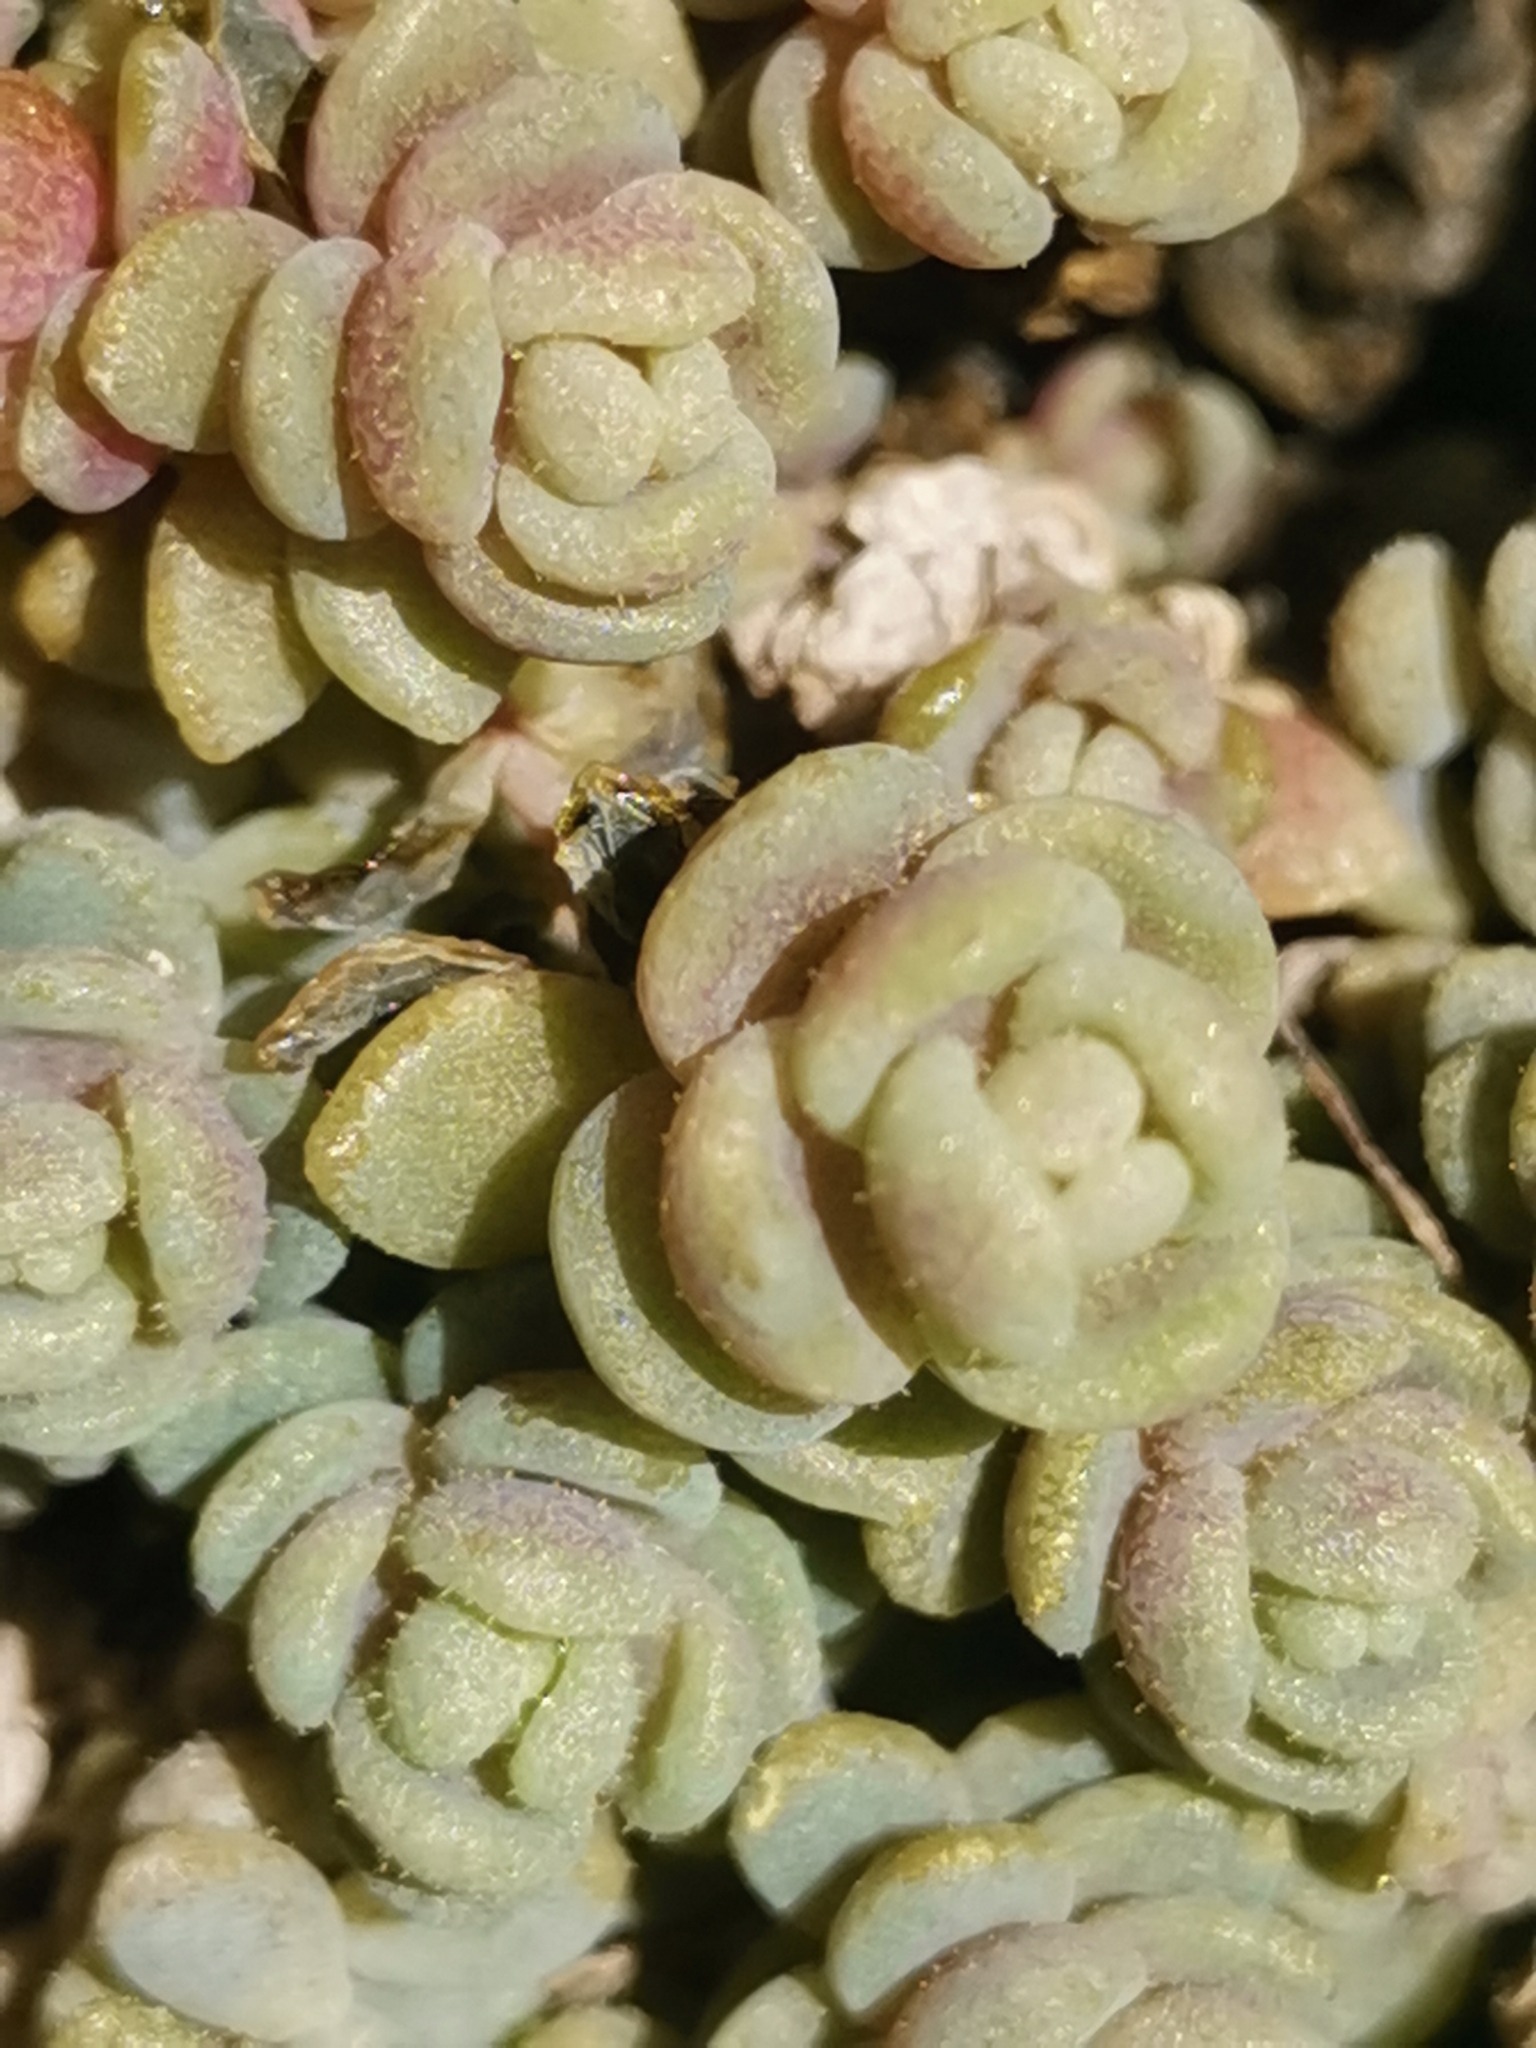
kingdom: Plantae
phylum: Tracheophyta
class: Magnoliopsida
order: Saxifragales
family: Crassulaceae
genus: Sedum
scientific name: Sedum dasyphyllum
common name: Thick-leaf stonecrop
